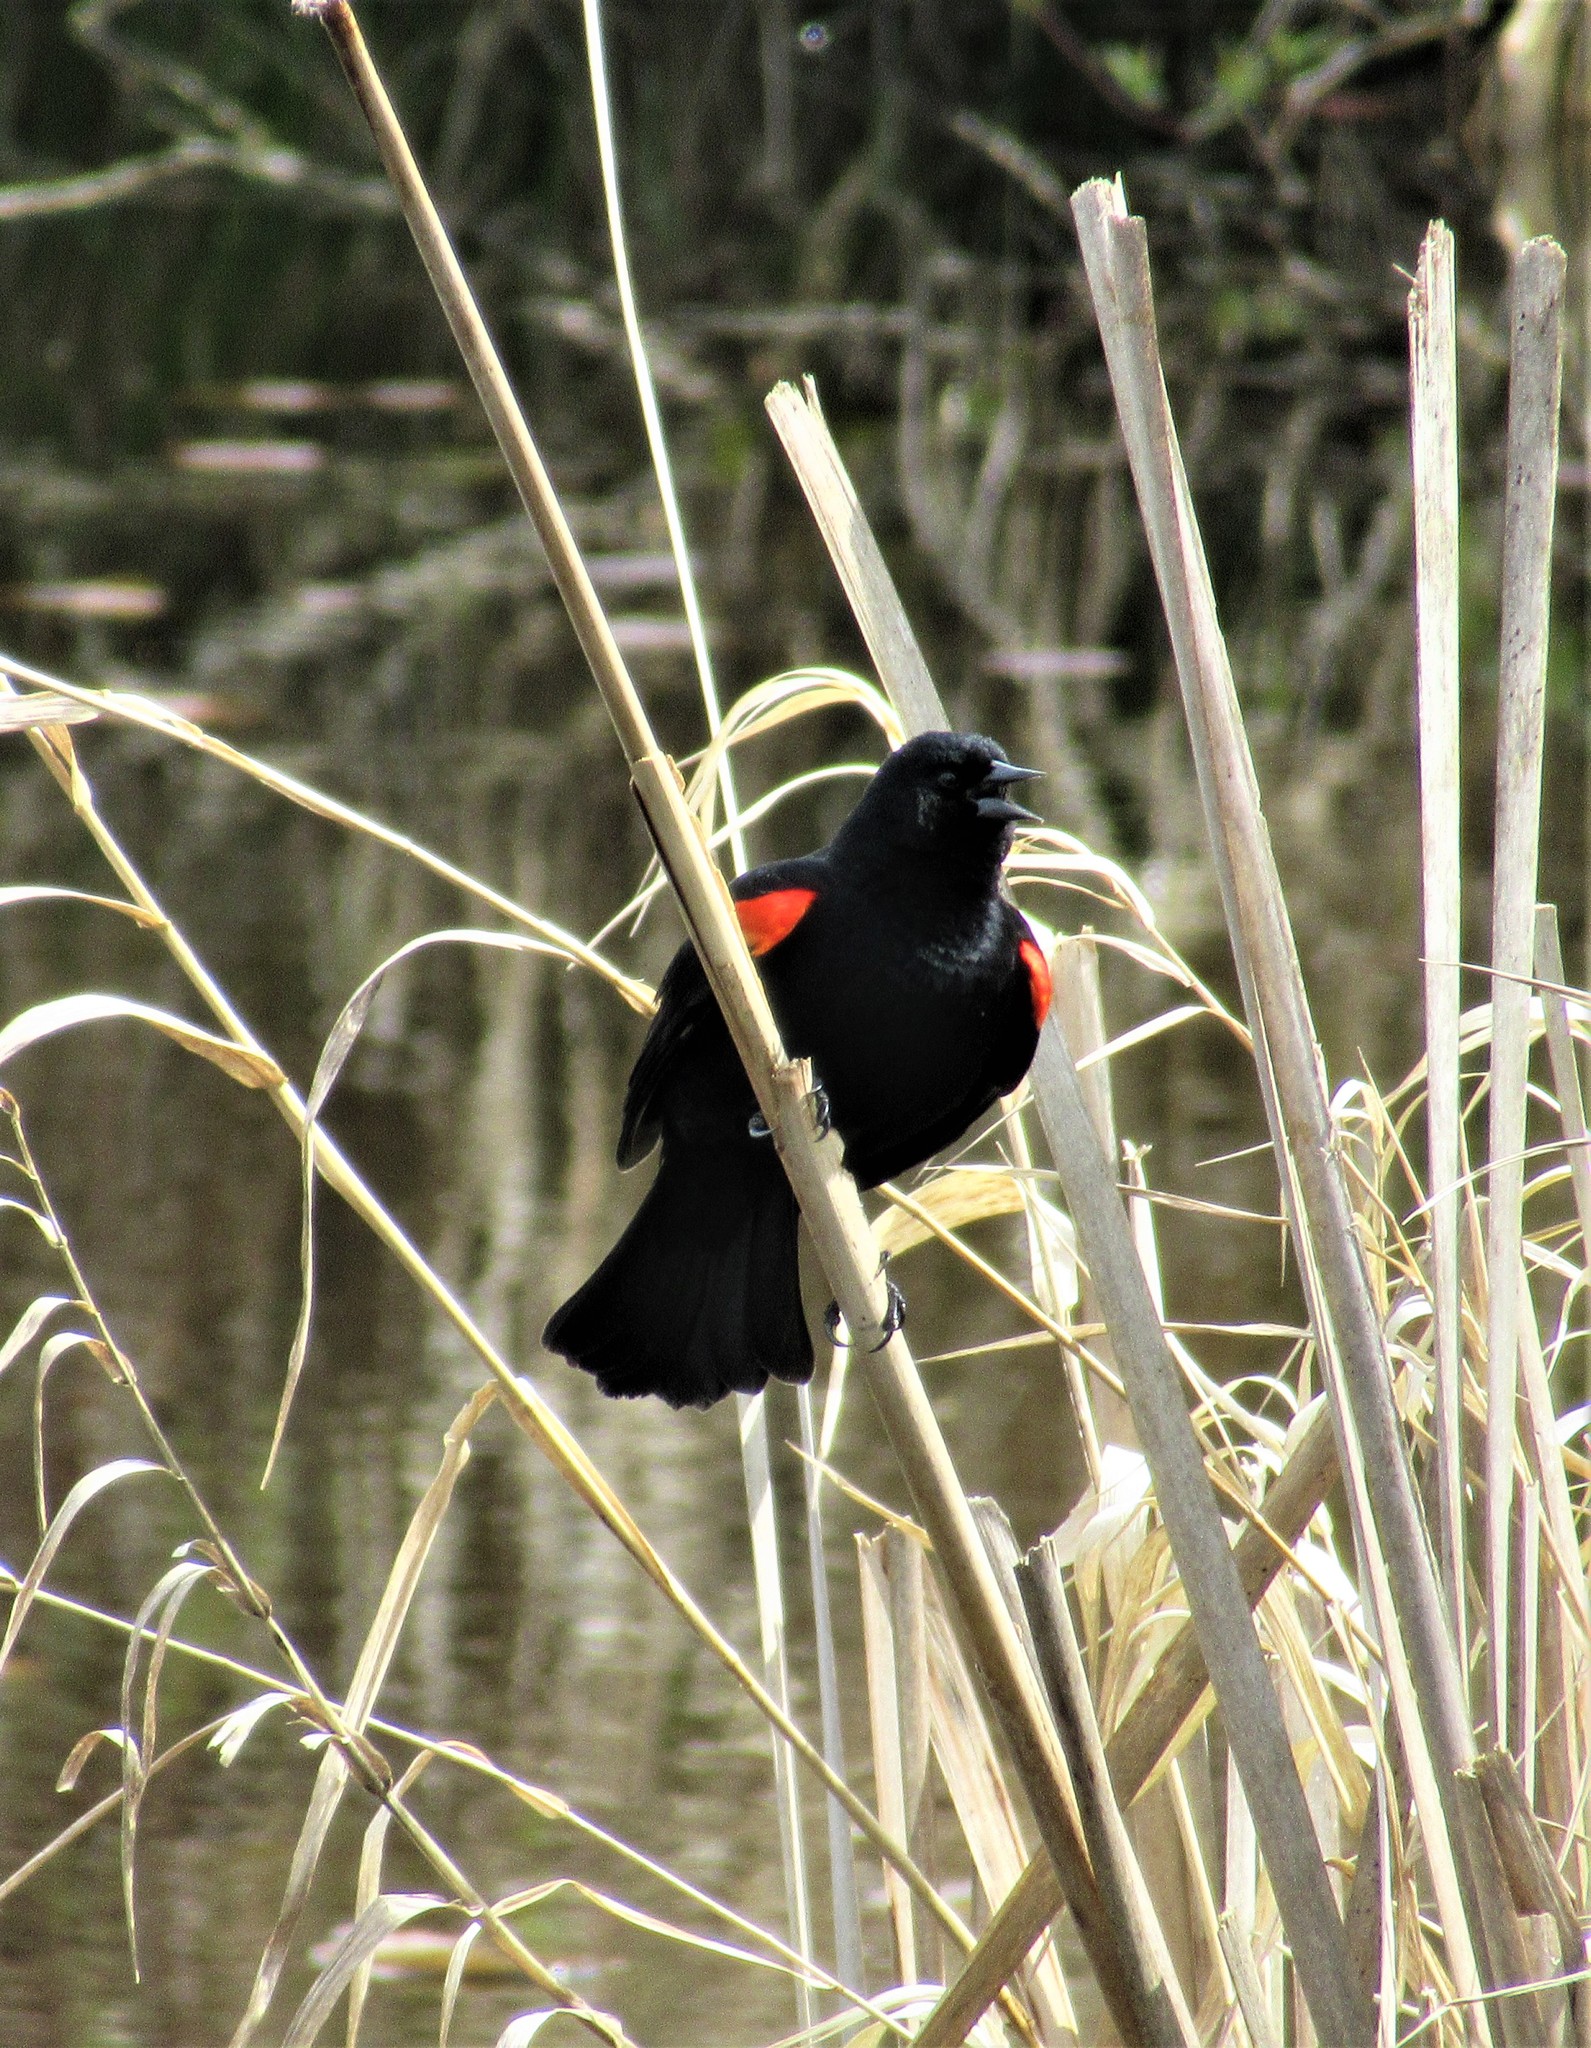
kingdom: Animalia
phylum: Chordata
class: Aves
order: Passeriformes
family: Icteridae
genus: Agelaius
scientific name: Agelaius phoeniceus
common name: Red-winged blackbird
